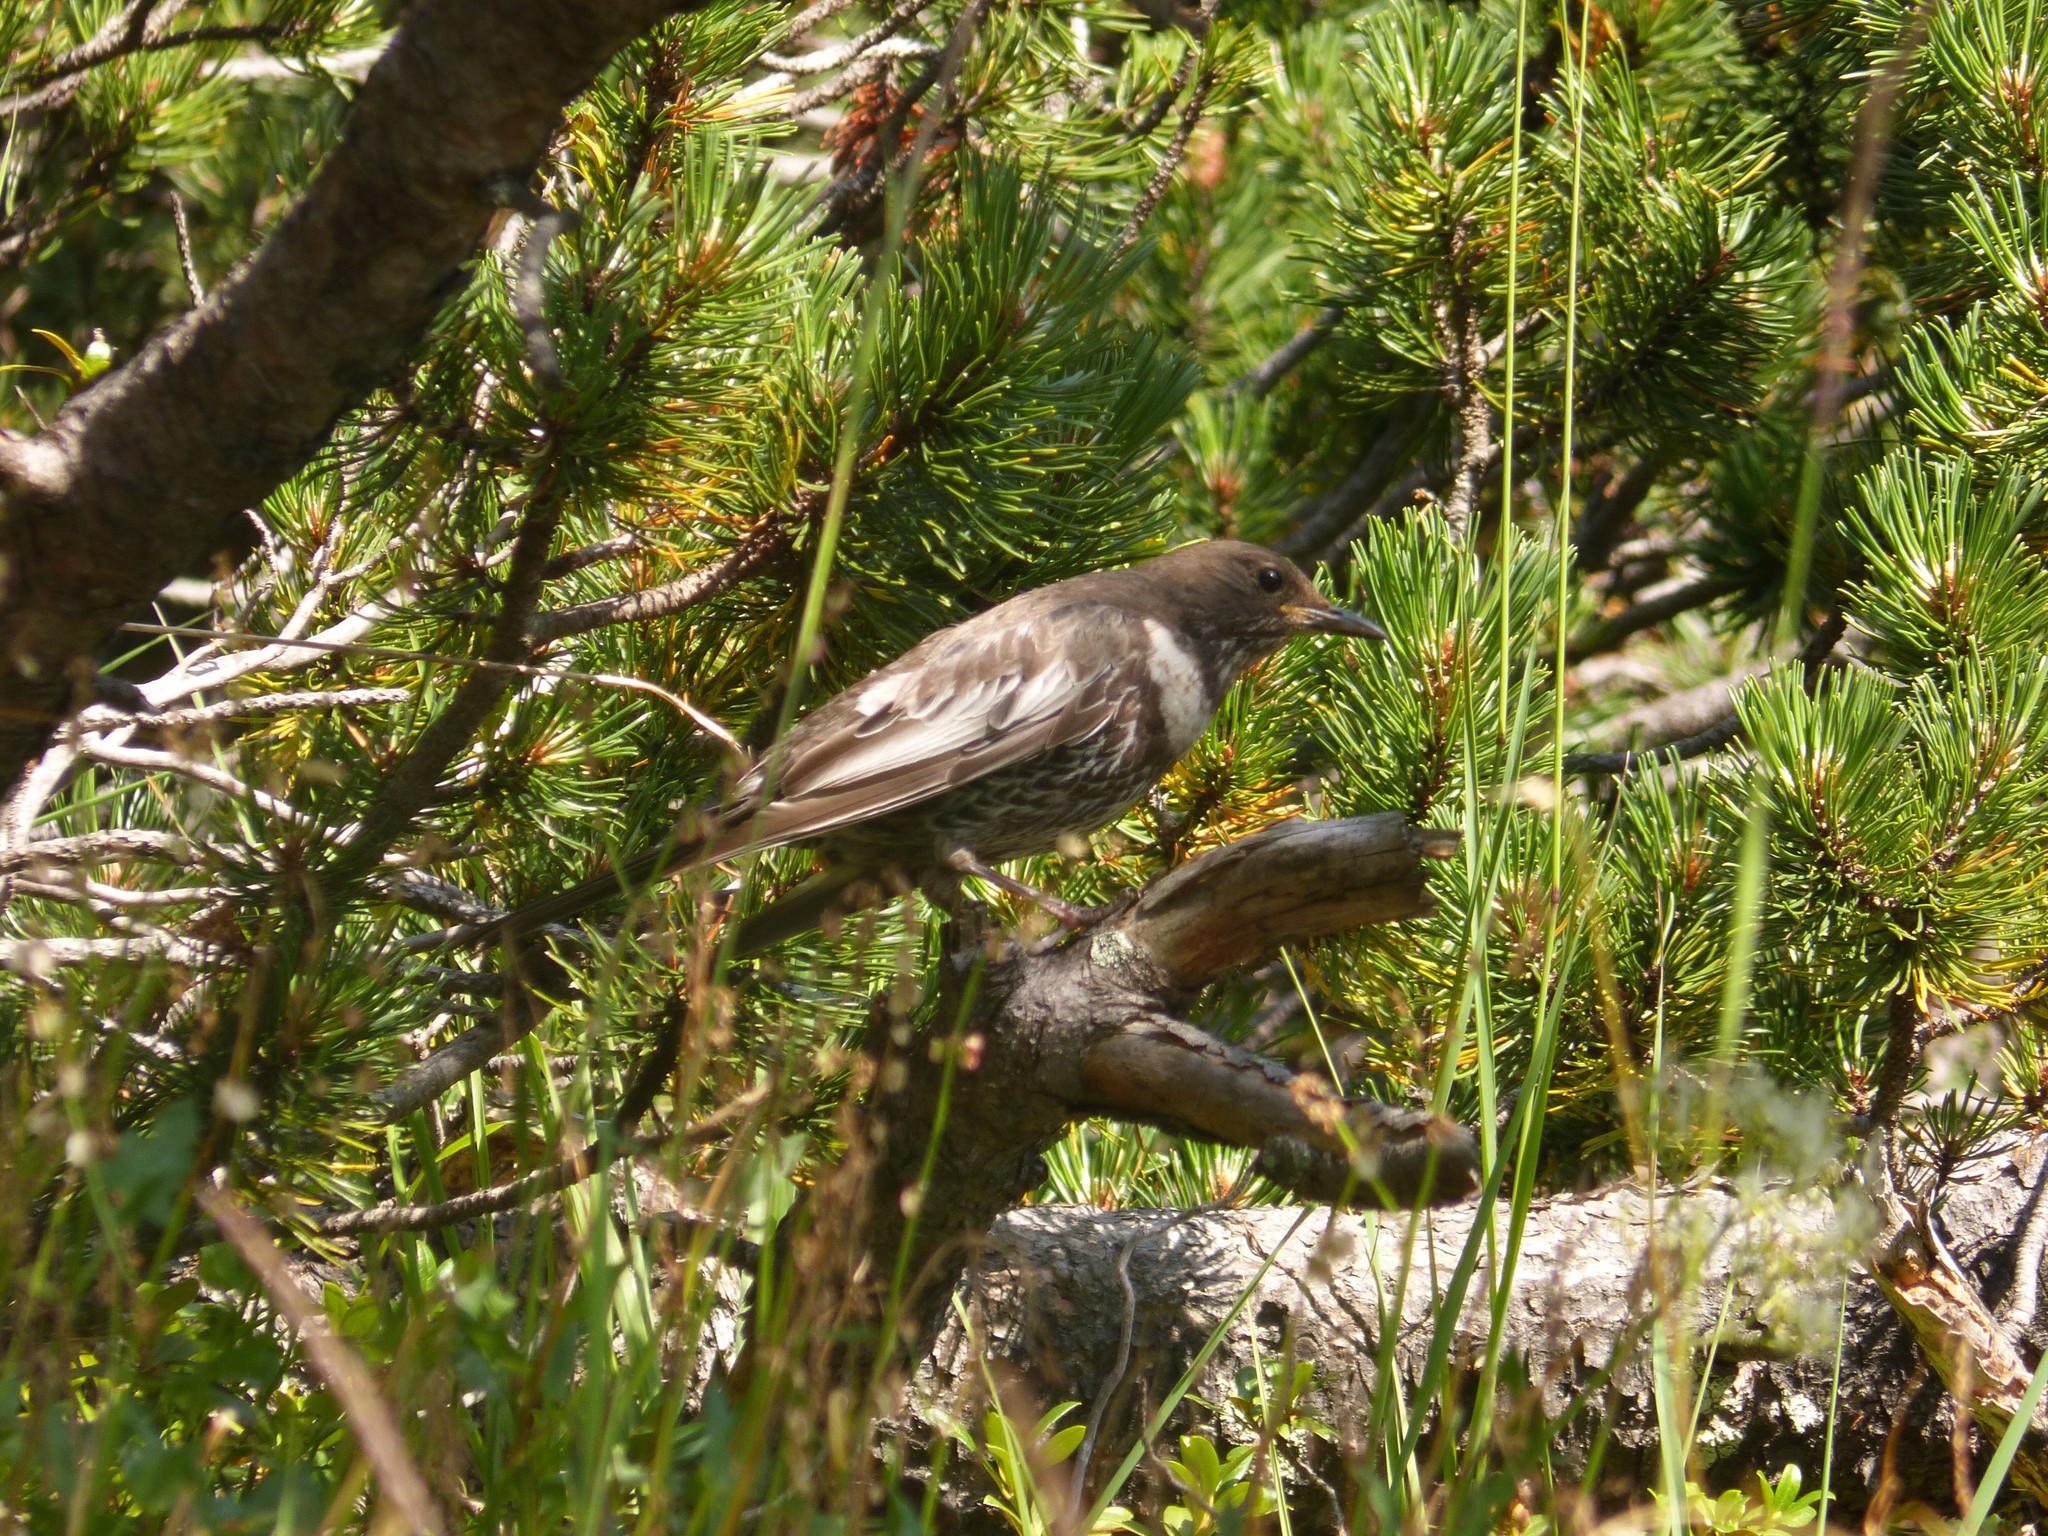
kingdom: Animalia
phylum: Chordata
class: Aves
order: Passeriformes
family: Turdidae
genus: Turdus
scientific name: Turdus torquatus
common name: Ring ouzel
